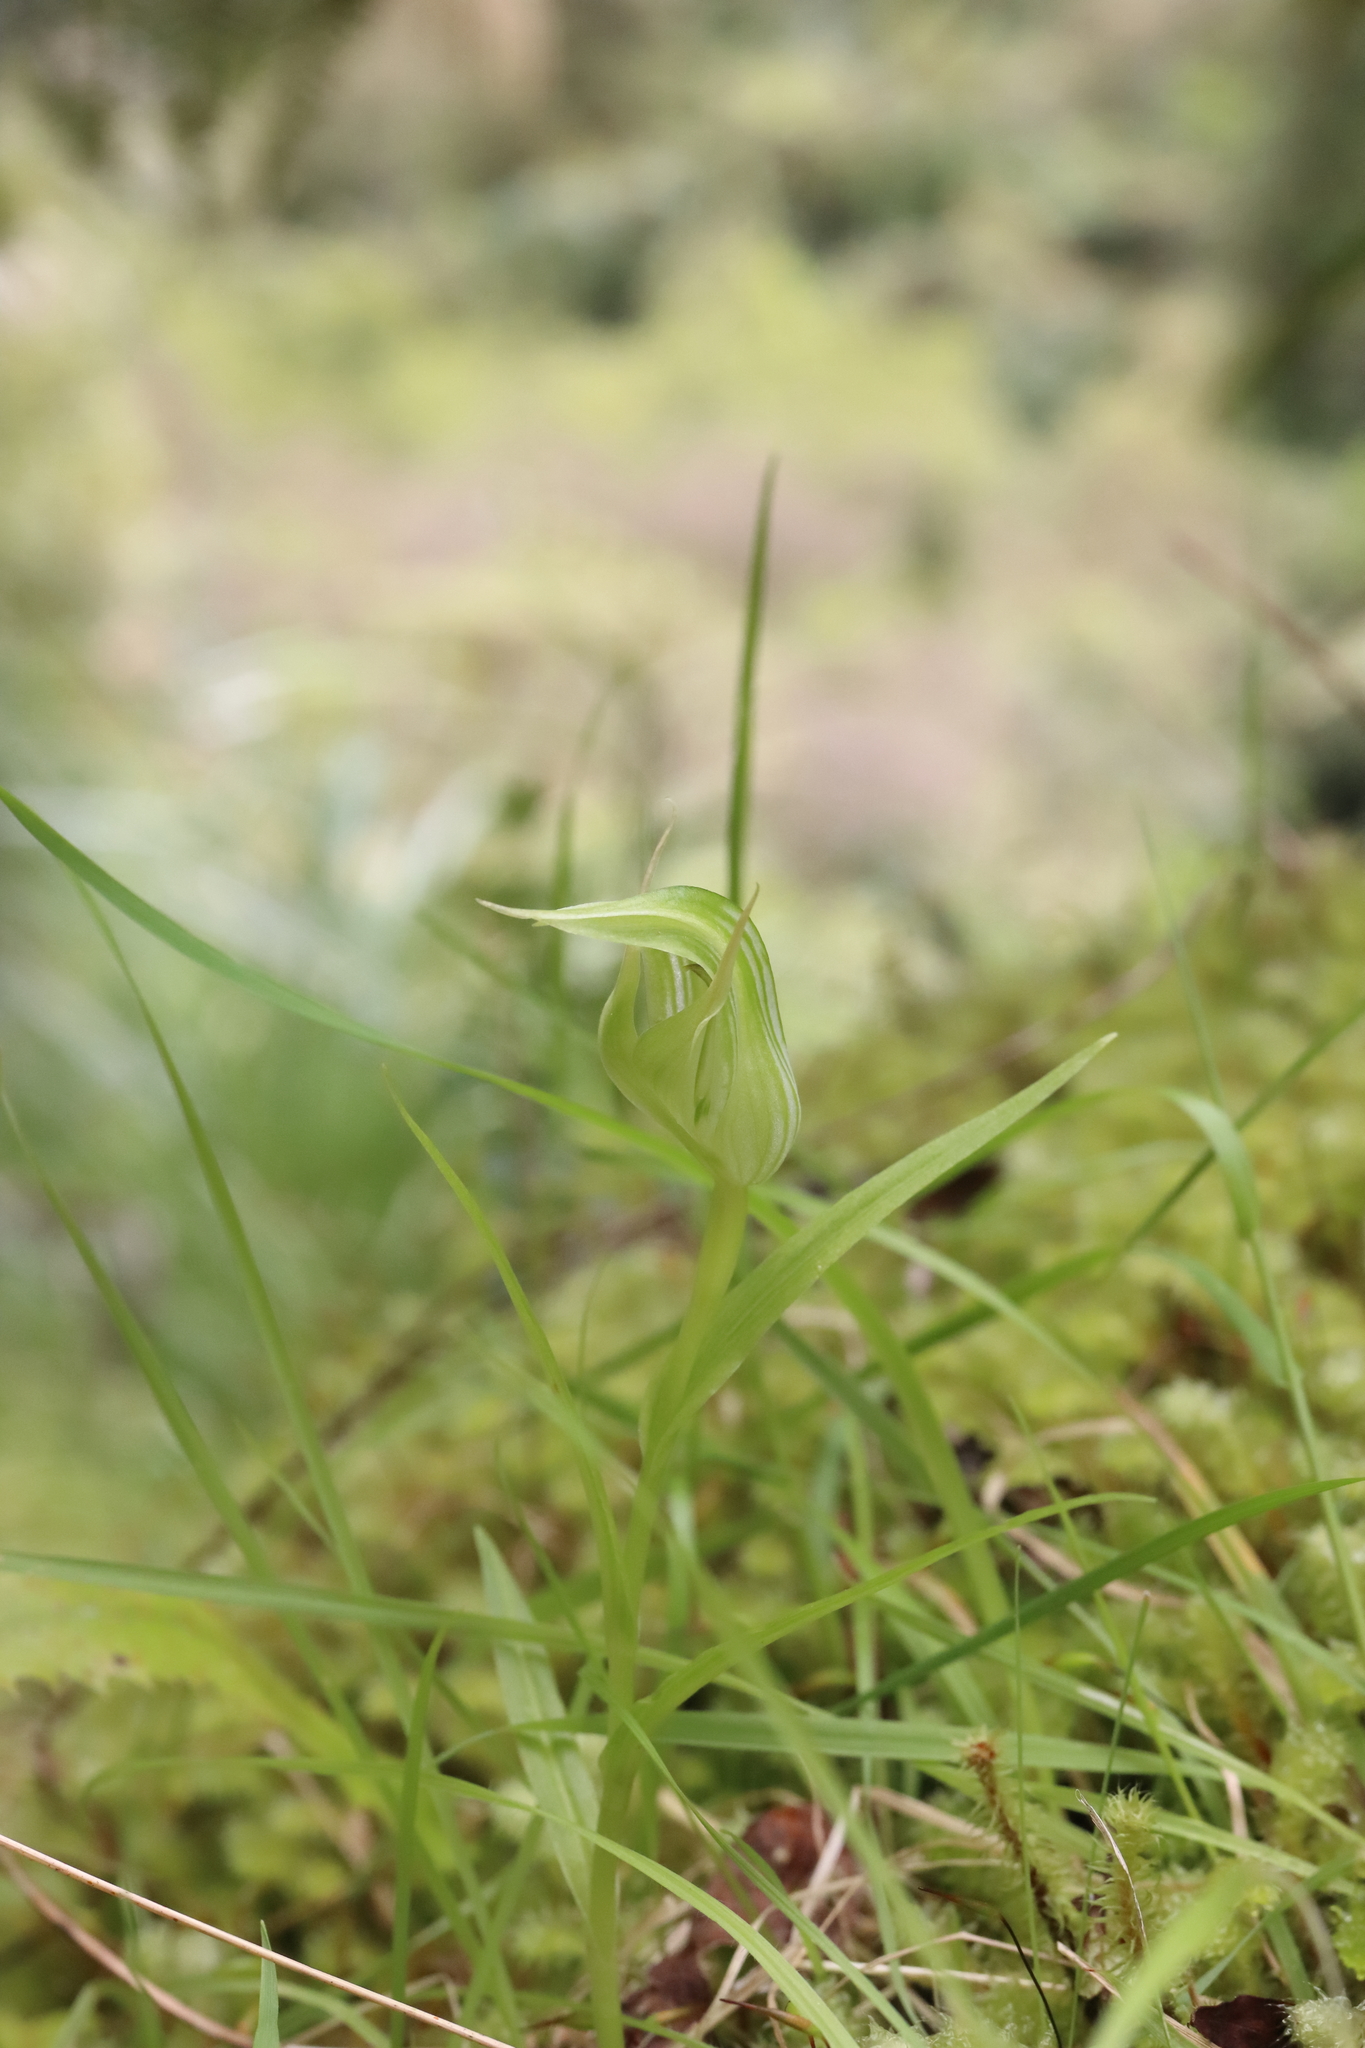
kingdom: Plantae
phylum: Tracheophyta
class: Liliopsida
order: Asparagales
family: Orchidaceae
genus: Pterostylis
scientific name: Pterostylis montana
